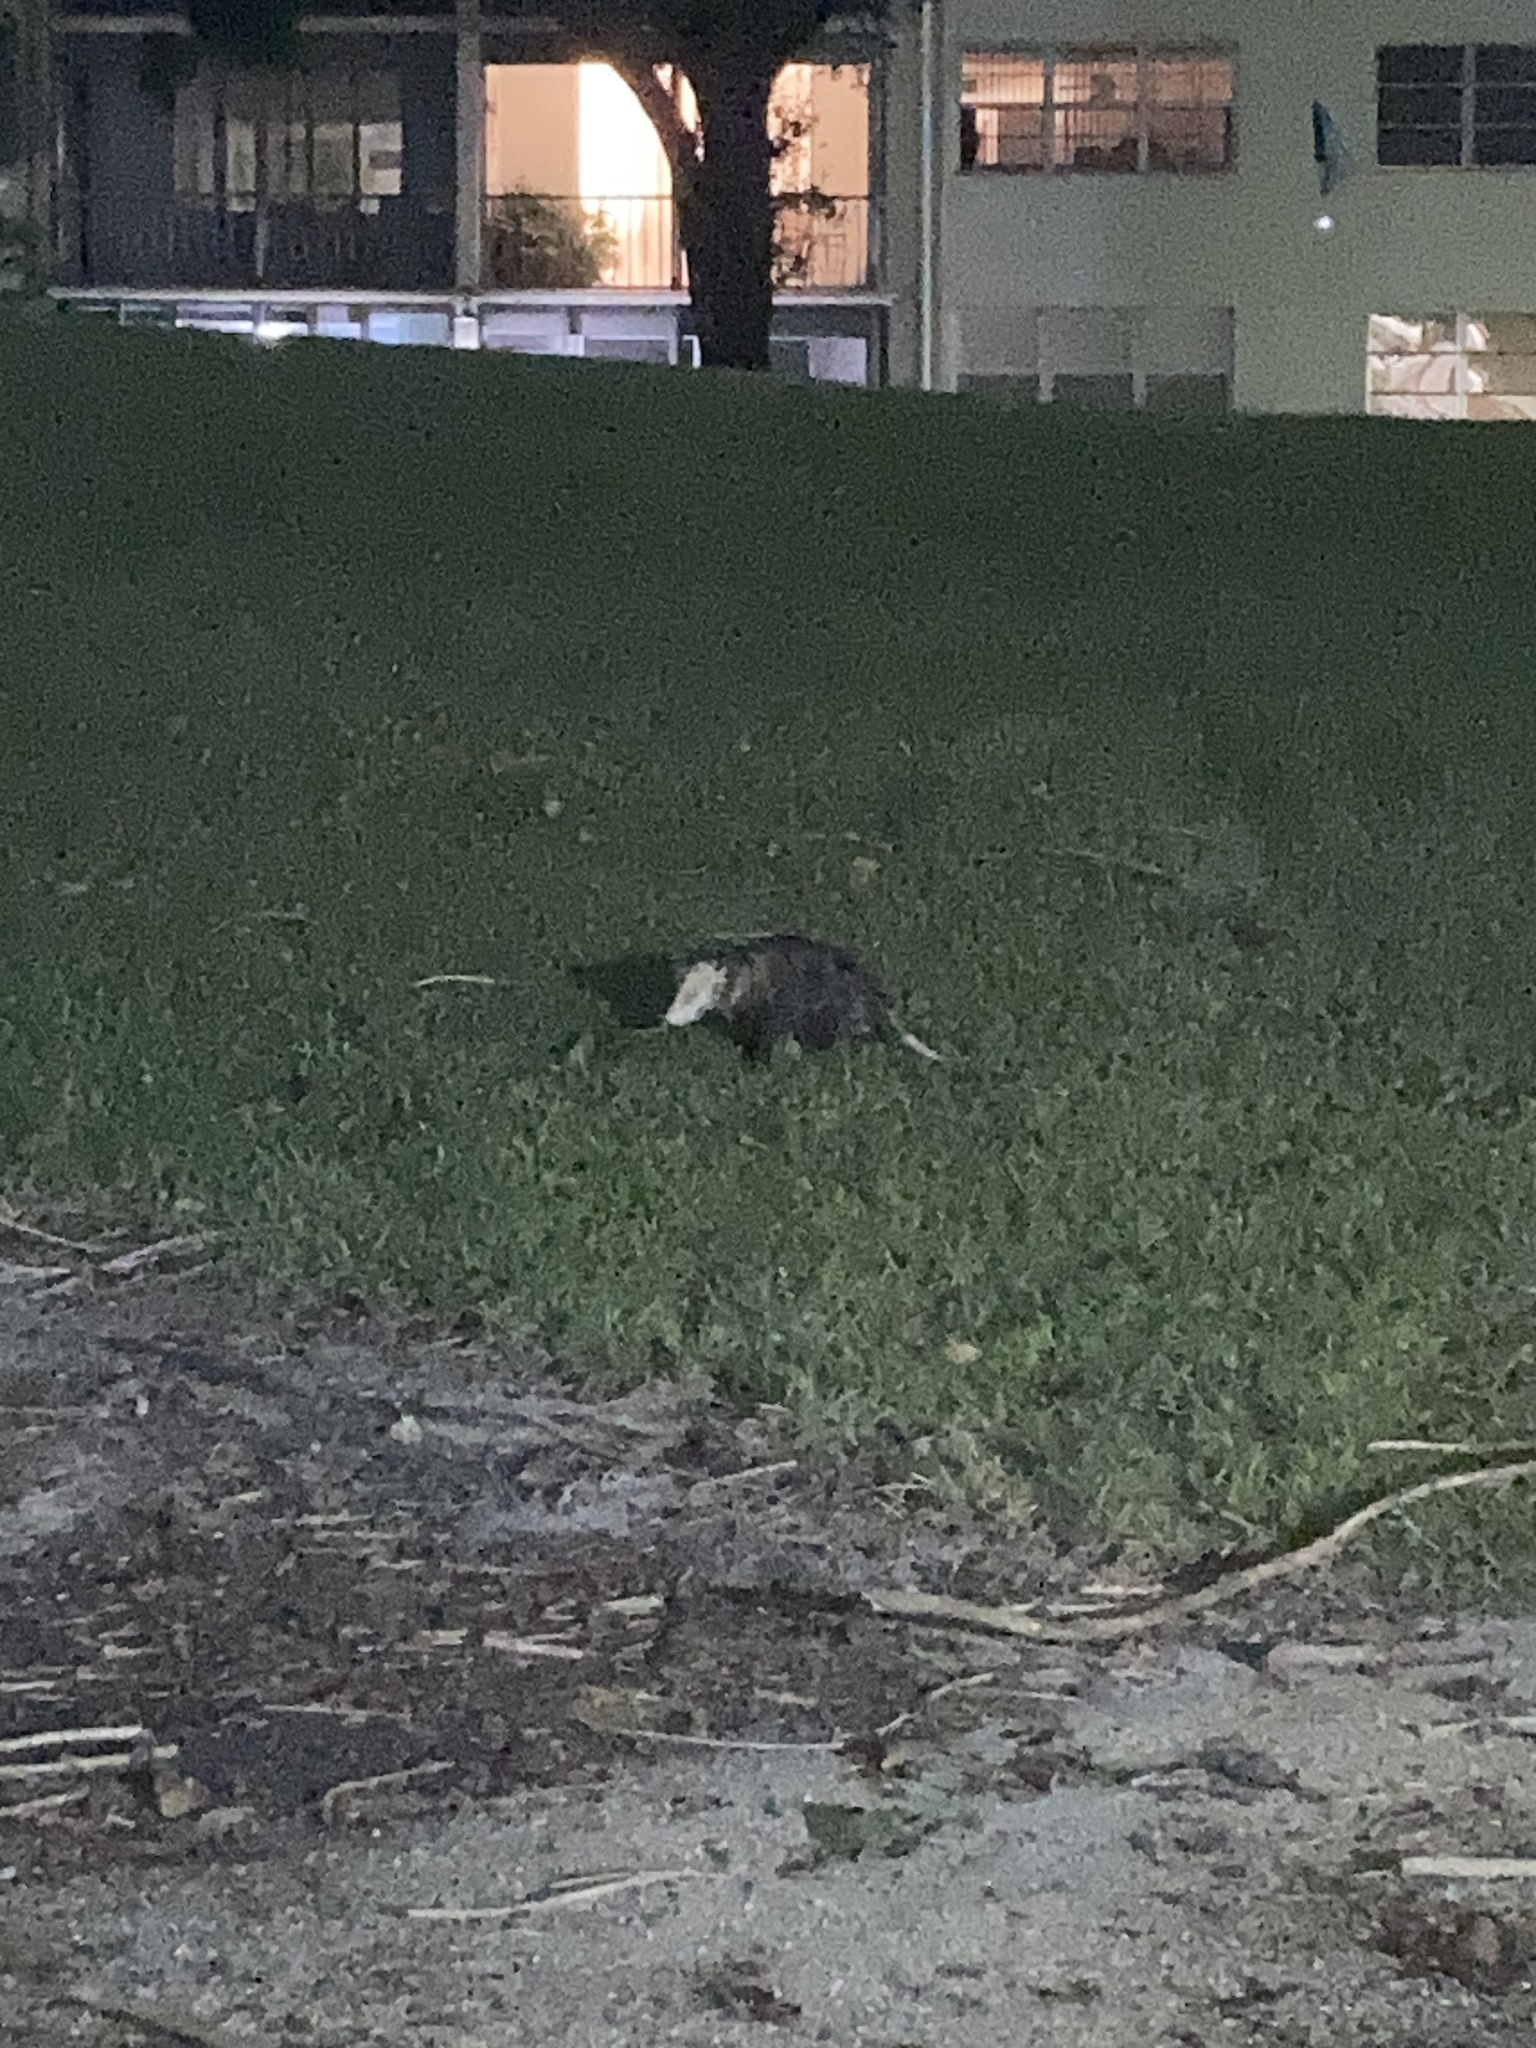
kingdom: Animalia
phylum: Chordata
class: Mammalia
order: Didelphimorphia
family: Didelphidae
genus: Didelphis
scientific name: Didelphis virginiana
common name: Virginia opossum
